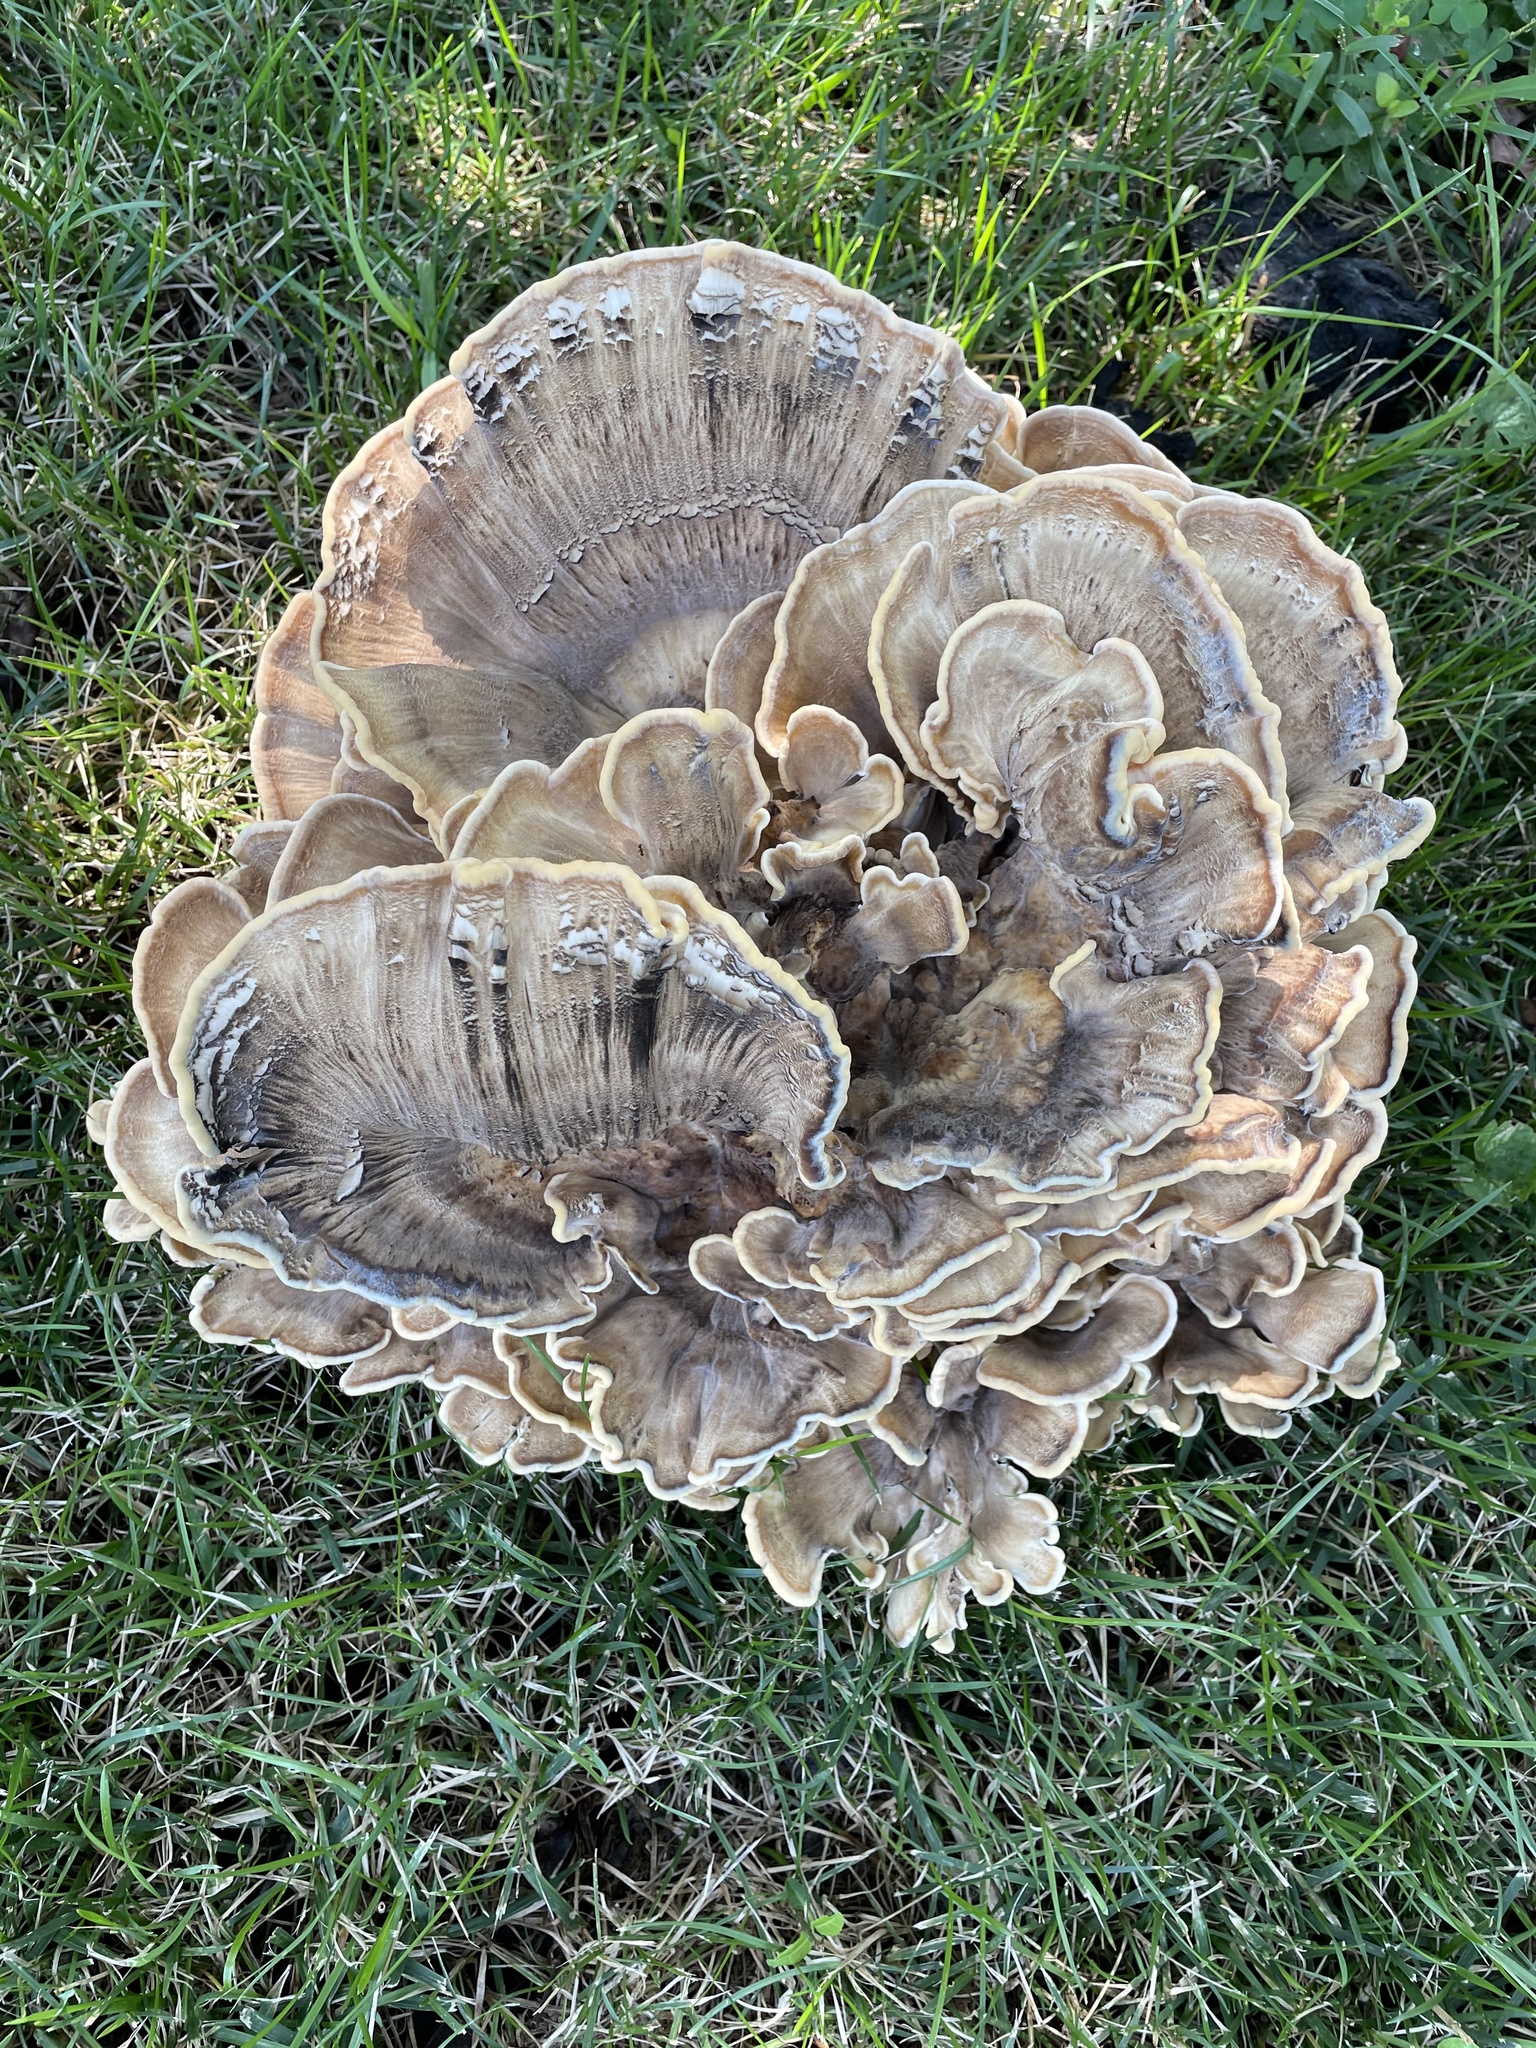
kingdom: Fungi
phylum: Basidiomycota
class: Agaricomycetes
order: Polyporales
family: Meripilaceae
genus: Meripilus
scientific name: Meripilus sumstinei
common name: Black-staining polypore
